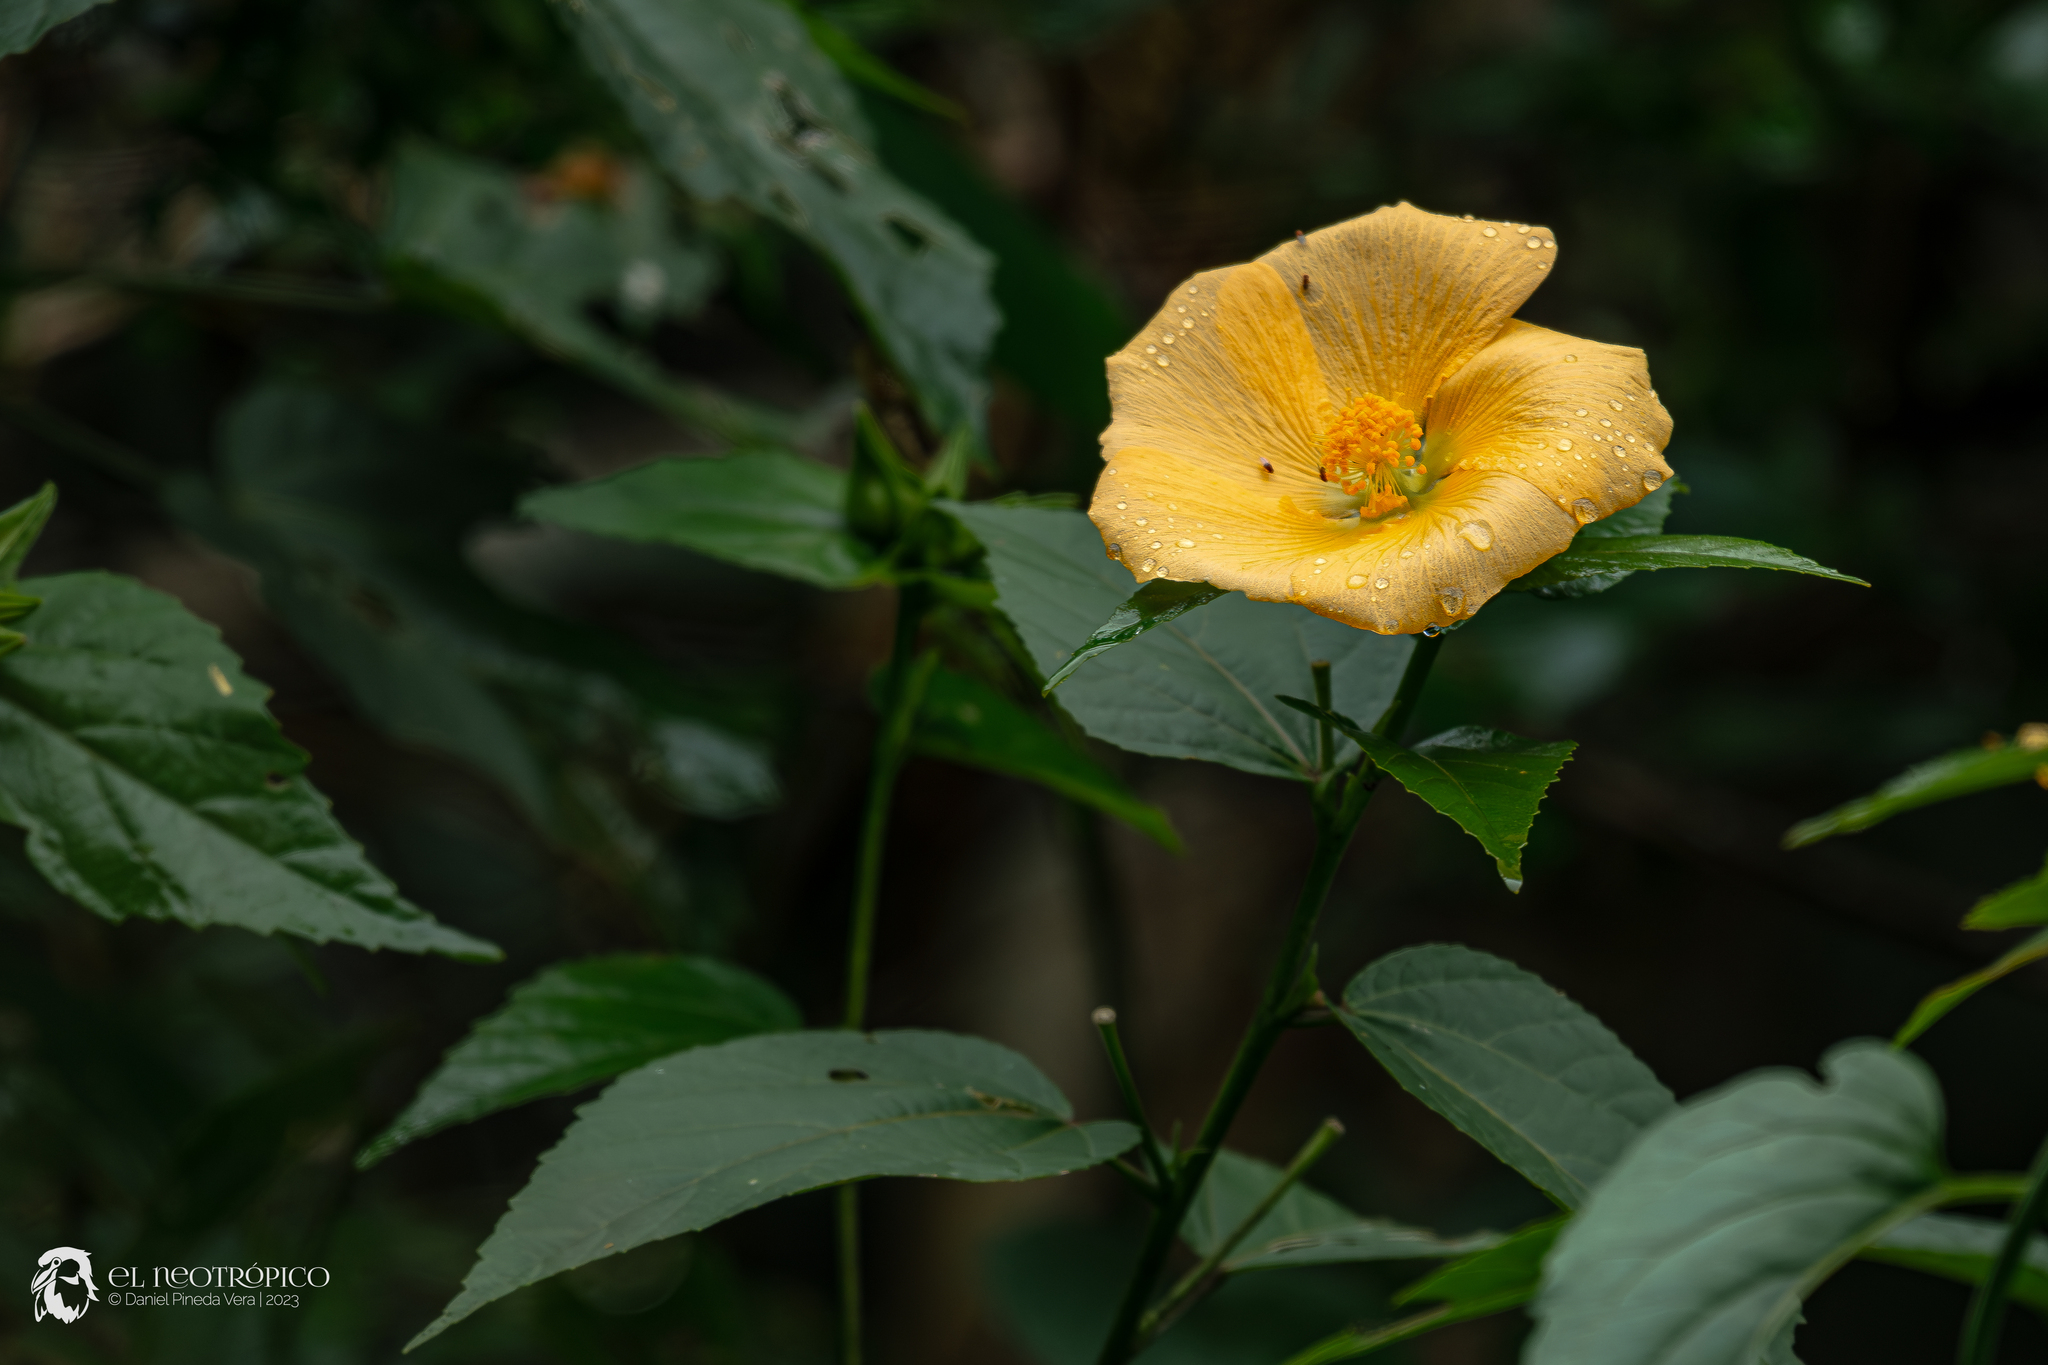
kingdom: Plantae
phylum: Tracheophyta
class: Magnoliopsida
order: Malvales
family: Malvaceae
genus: Dendrosida
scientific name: Dendrosida sharpiana
